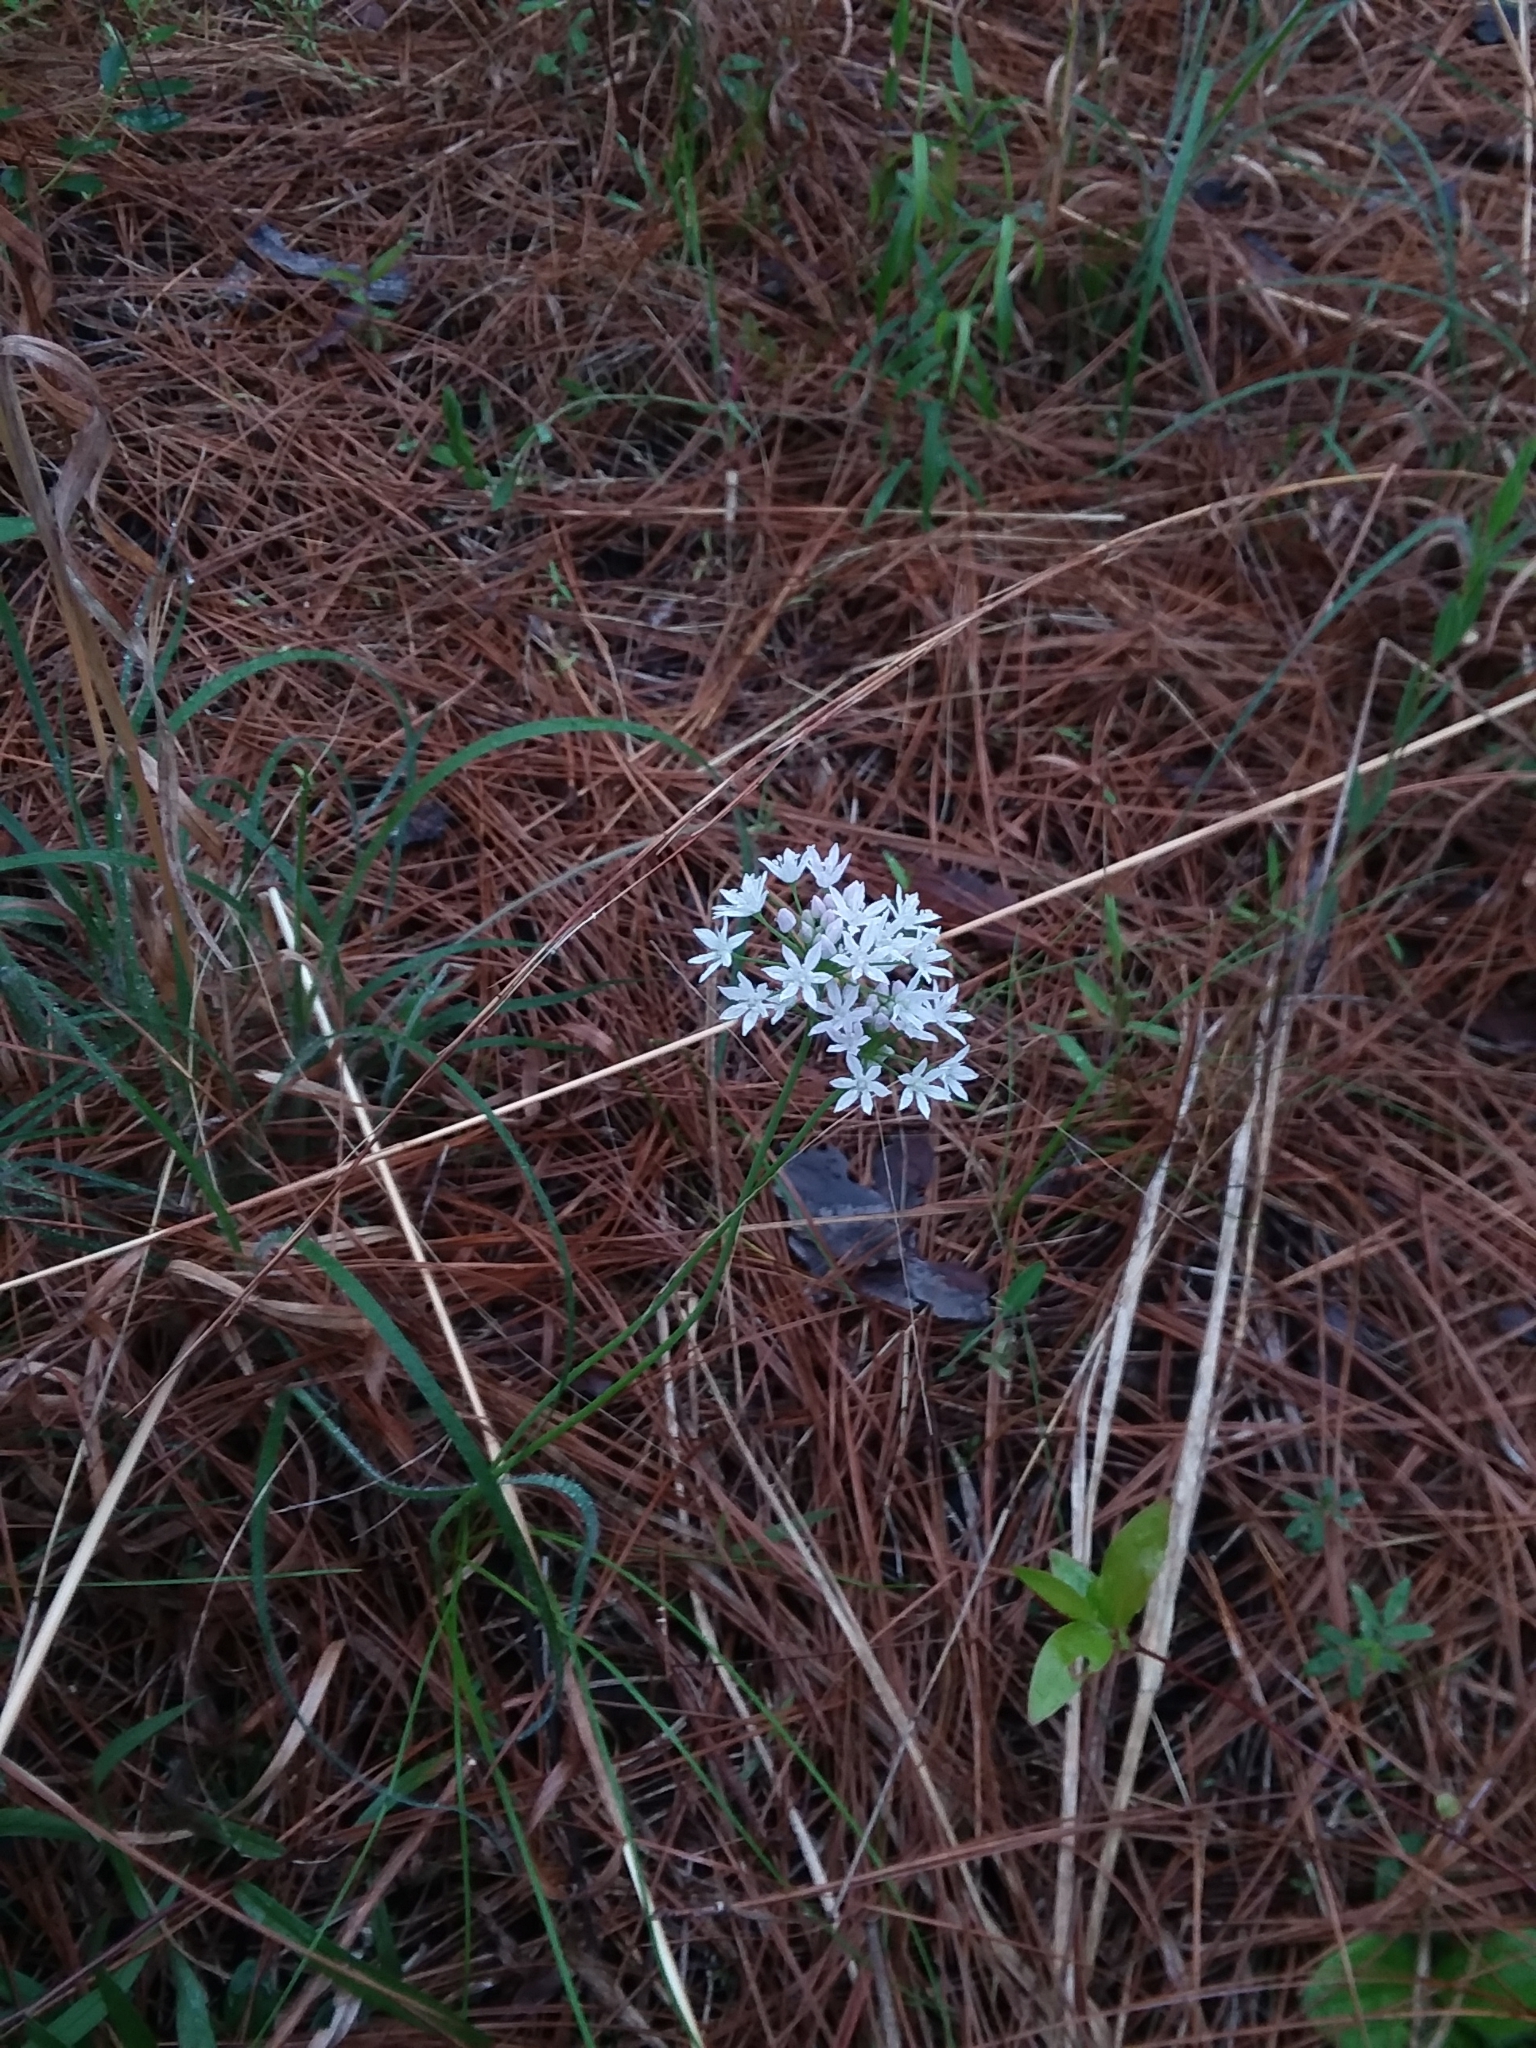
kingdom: Plantae
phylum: Tracheophyta
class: Liliopsida
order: Asparagales
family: Amaryllidaceae
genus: Allium
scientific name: Allium canadense
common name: Meadow garlic
